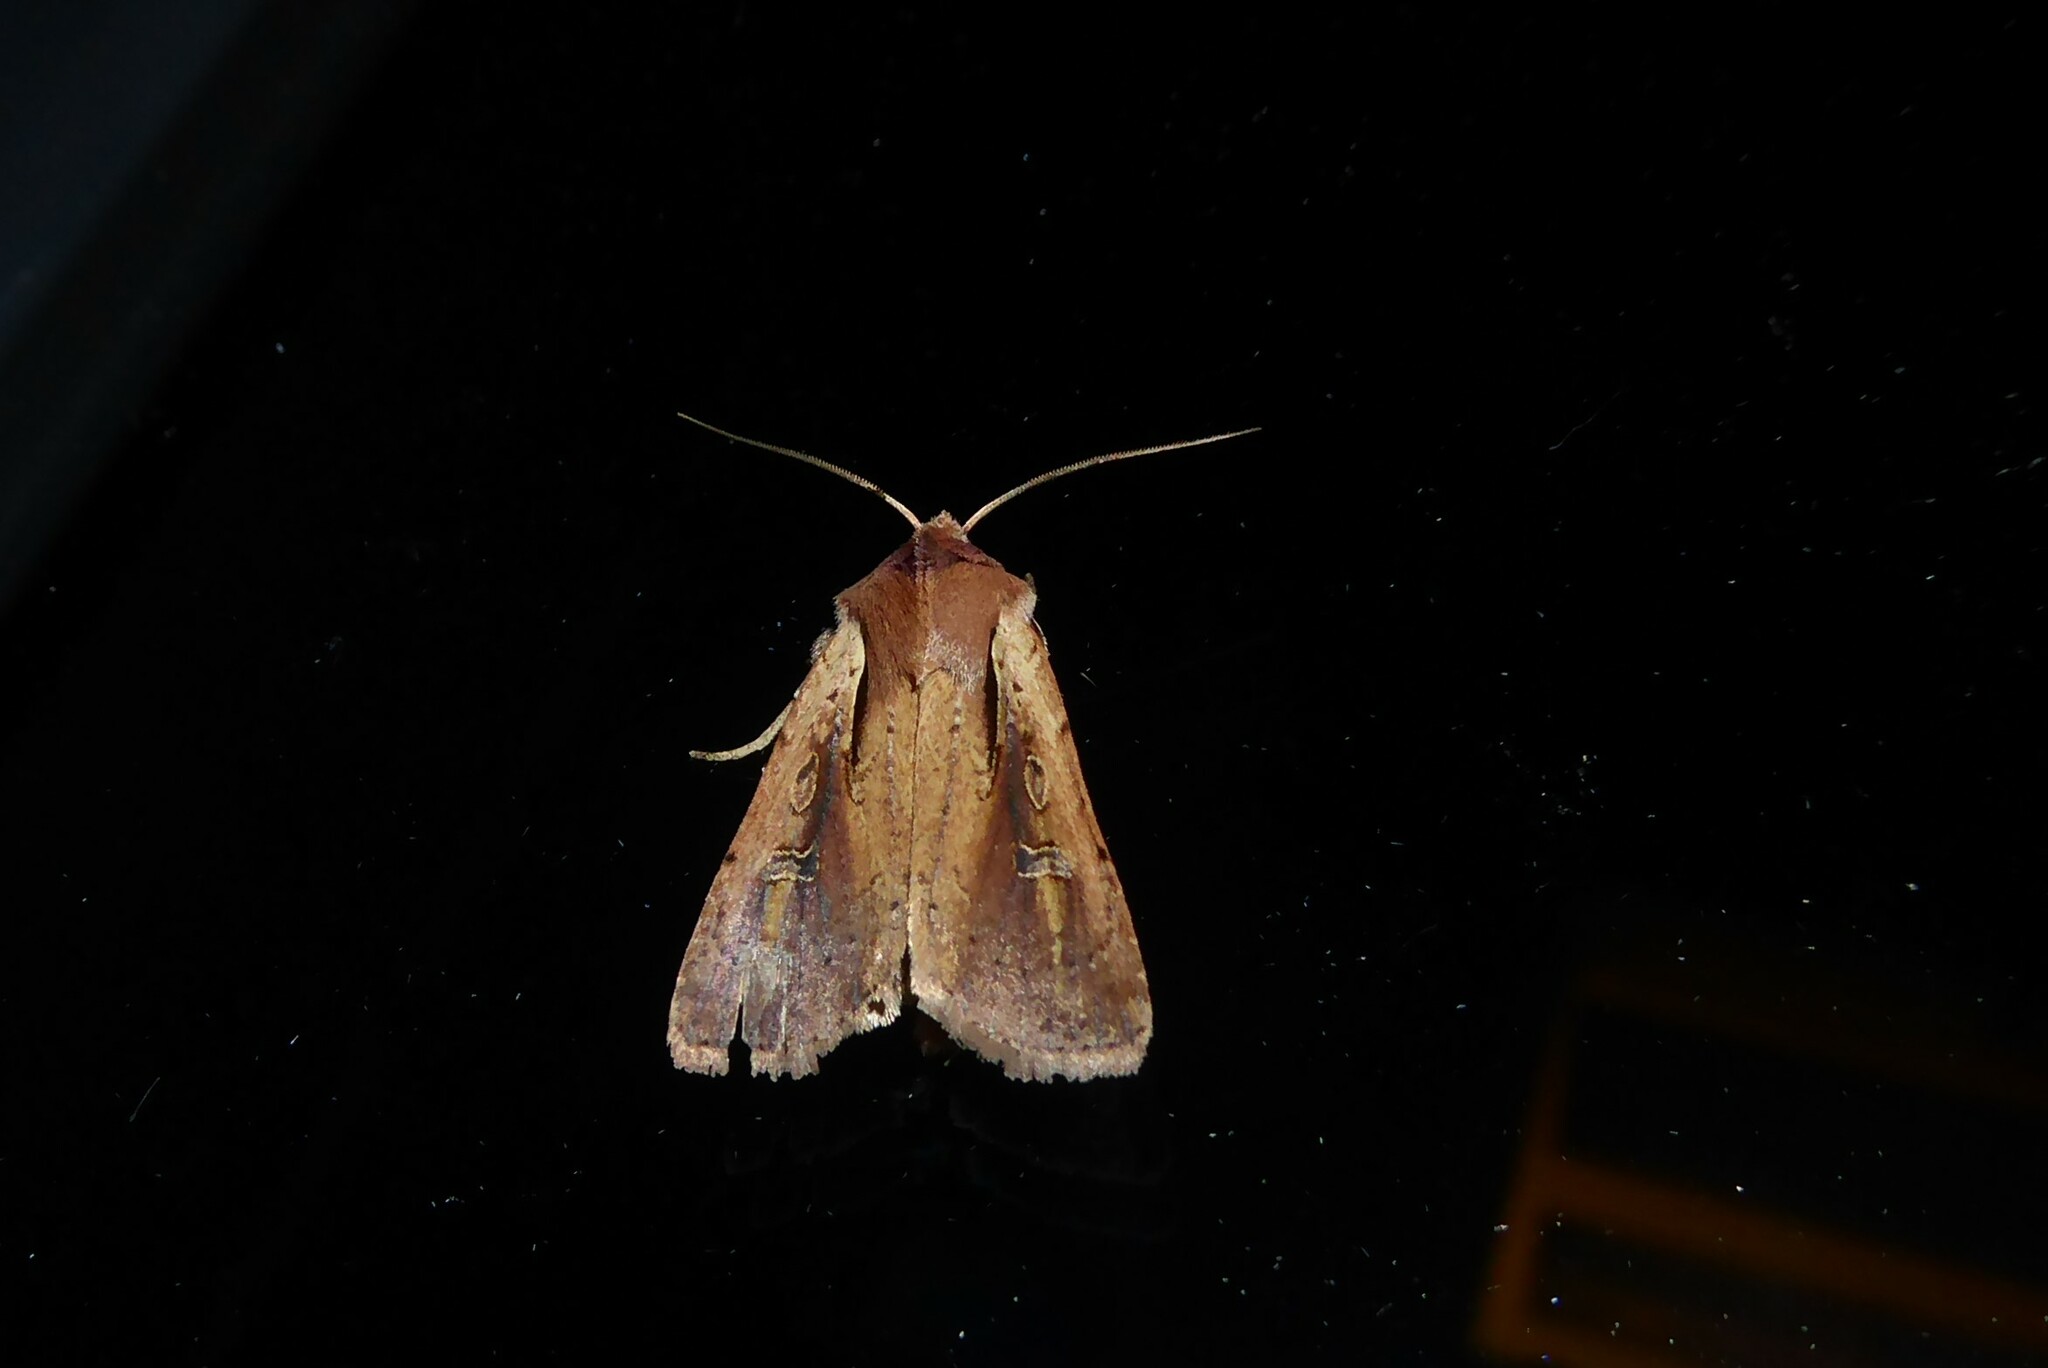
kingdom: Animalia
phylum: Arthropoda
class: Insecta
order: Lepidoptera
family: Noctuidae
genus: Ichneutica
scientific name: Ichneutica atristriga
